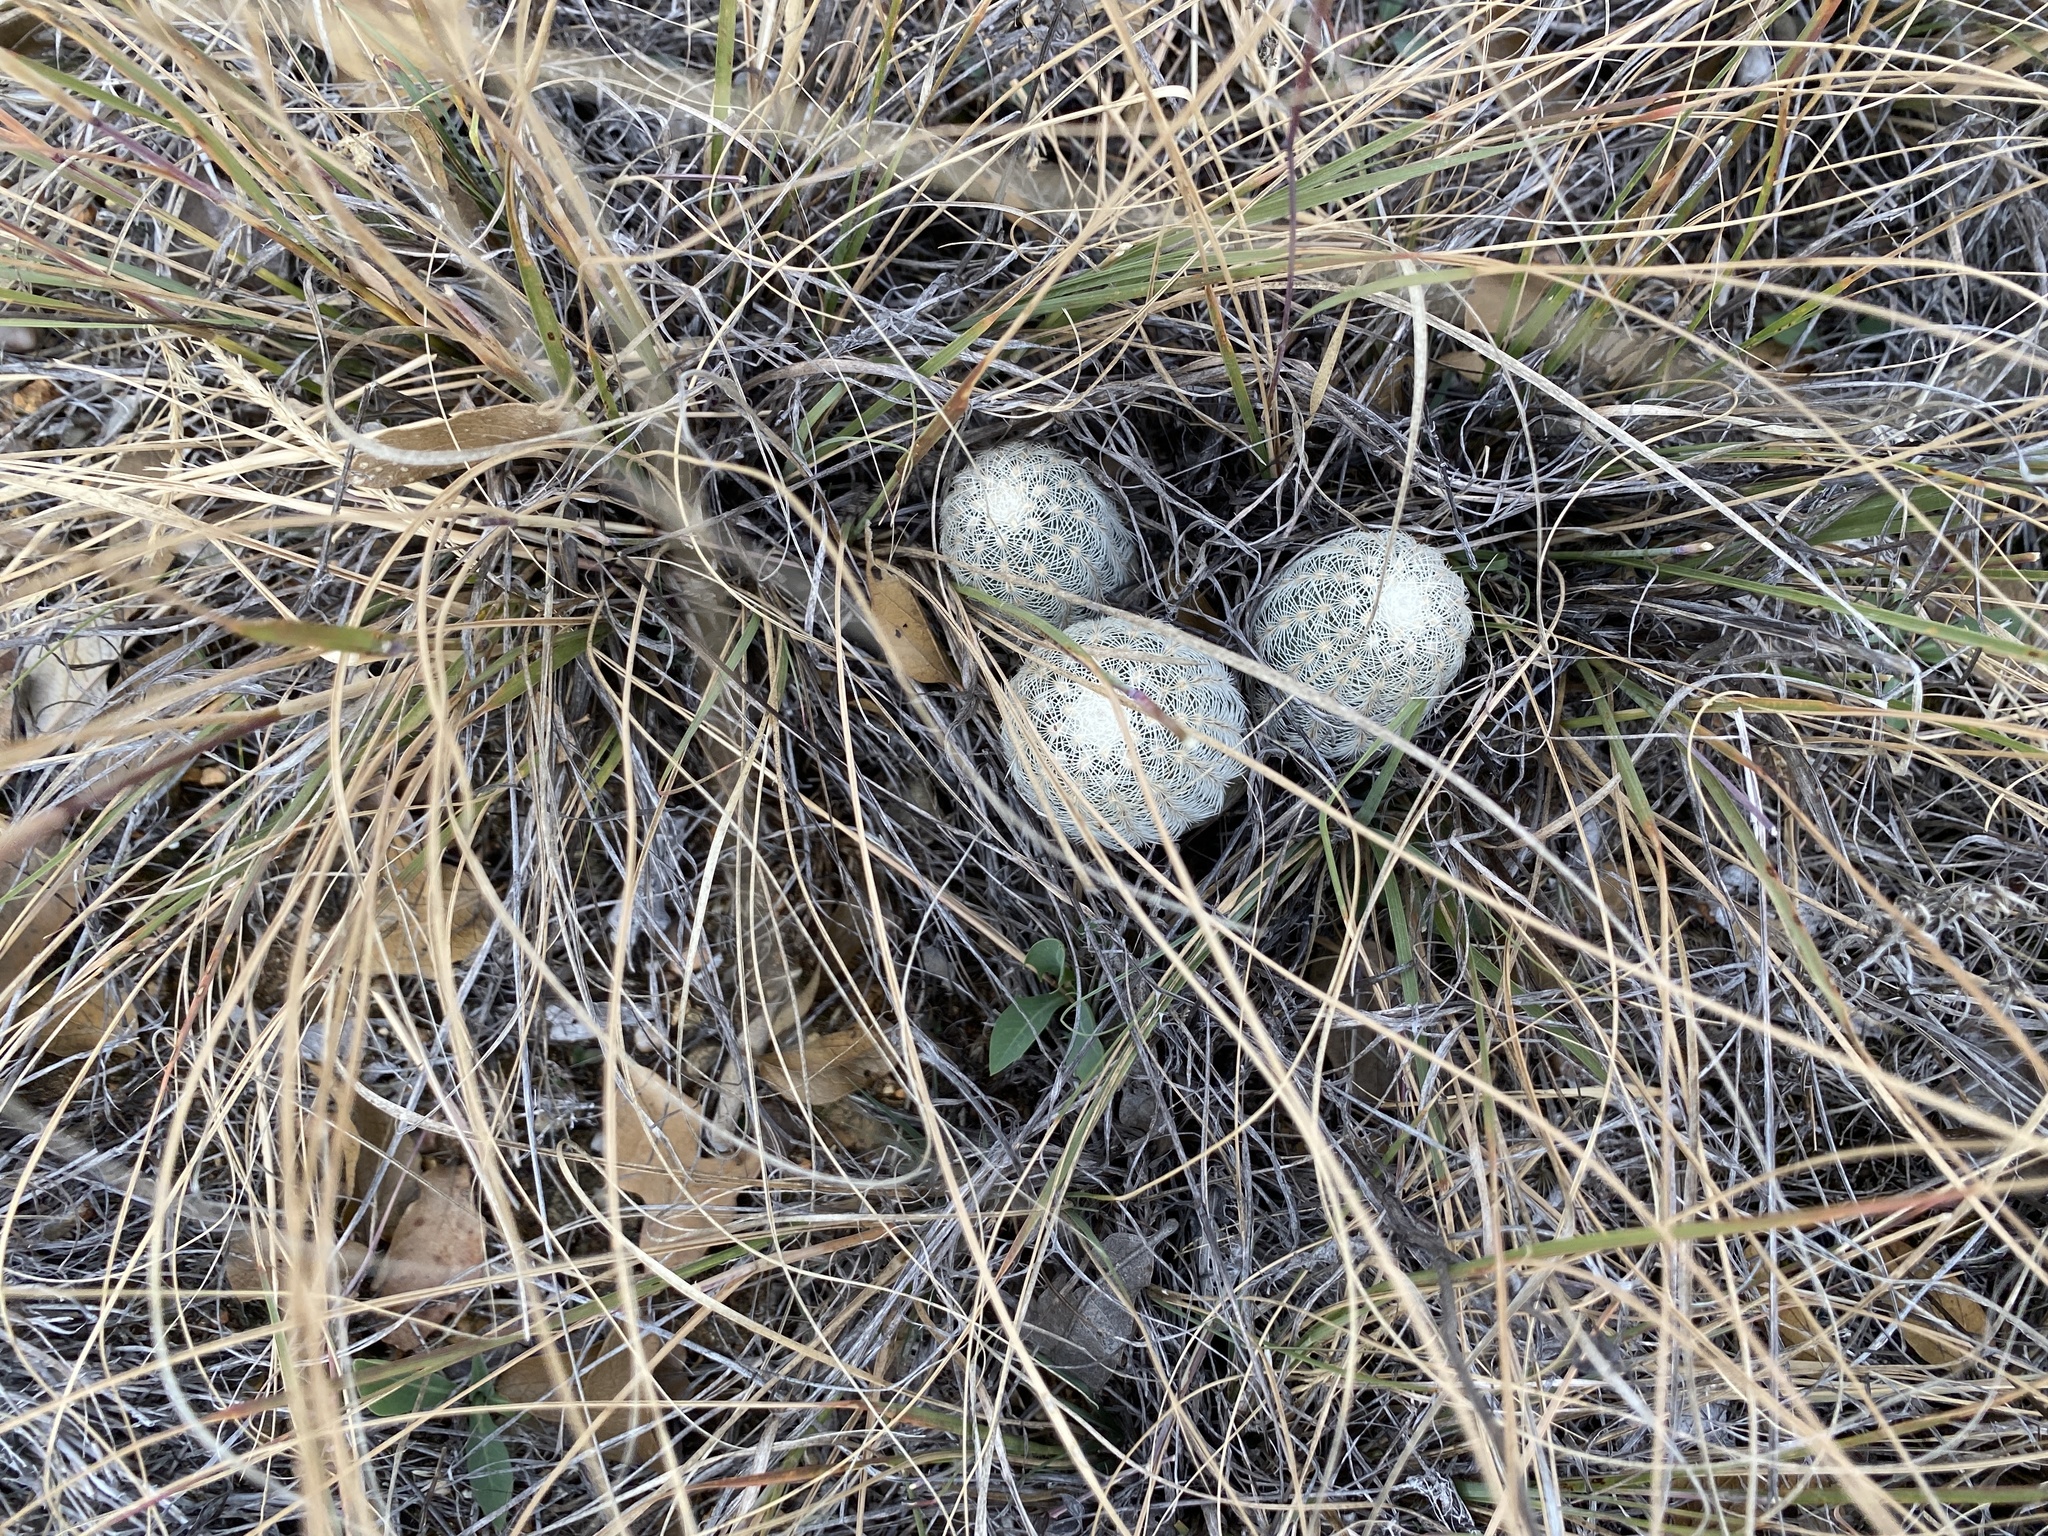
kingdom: Plantae
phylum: Tracheophyta
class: Magnoliopsida
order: Caryophyllales
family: Cactaceae
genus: Echinocereus
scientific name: Echinocereus reichenbachii
